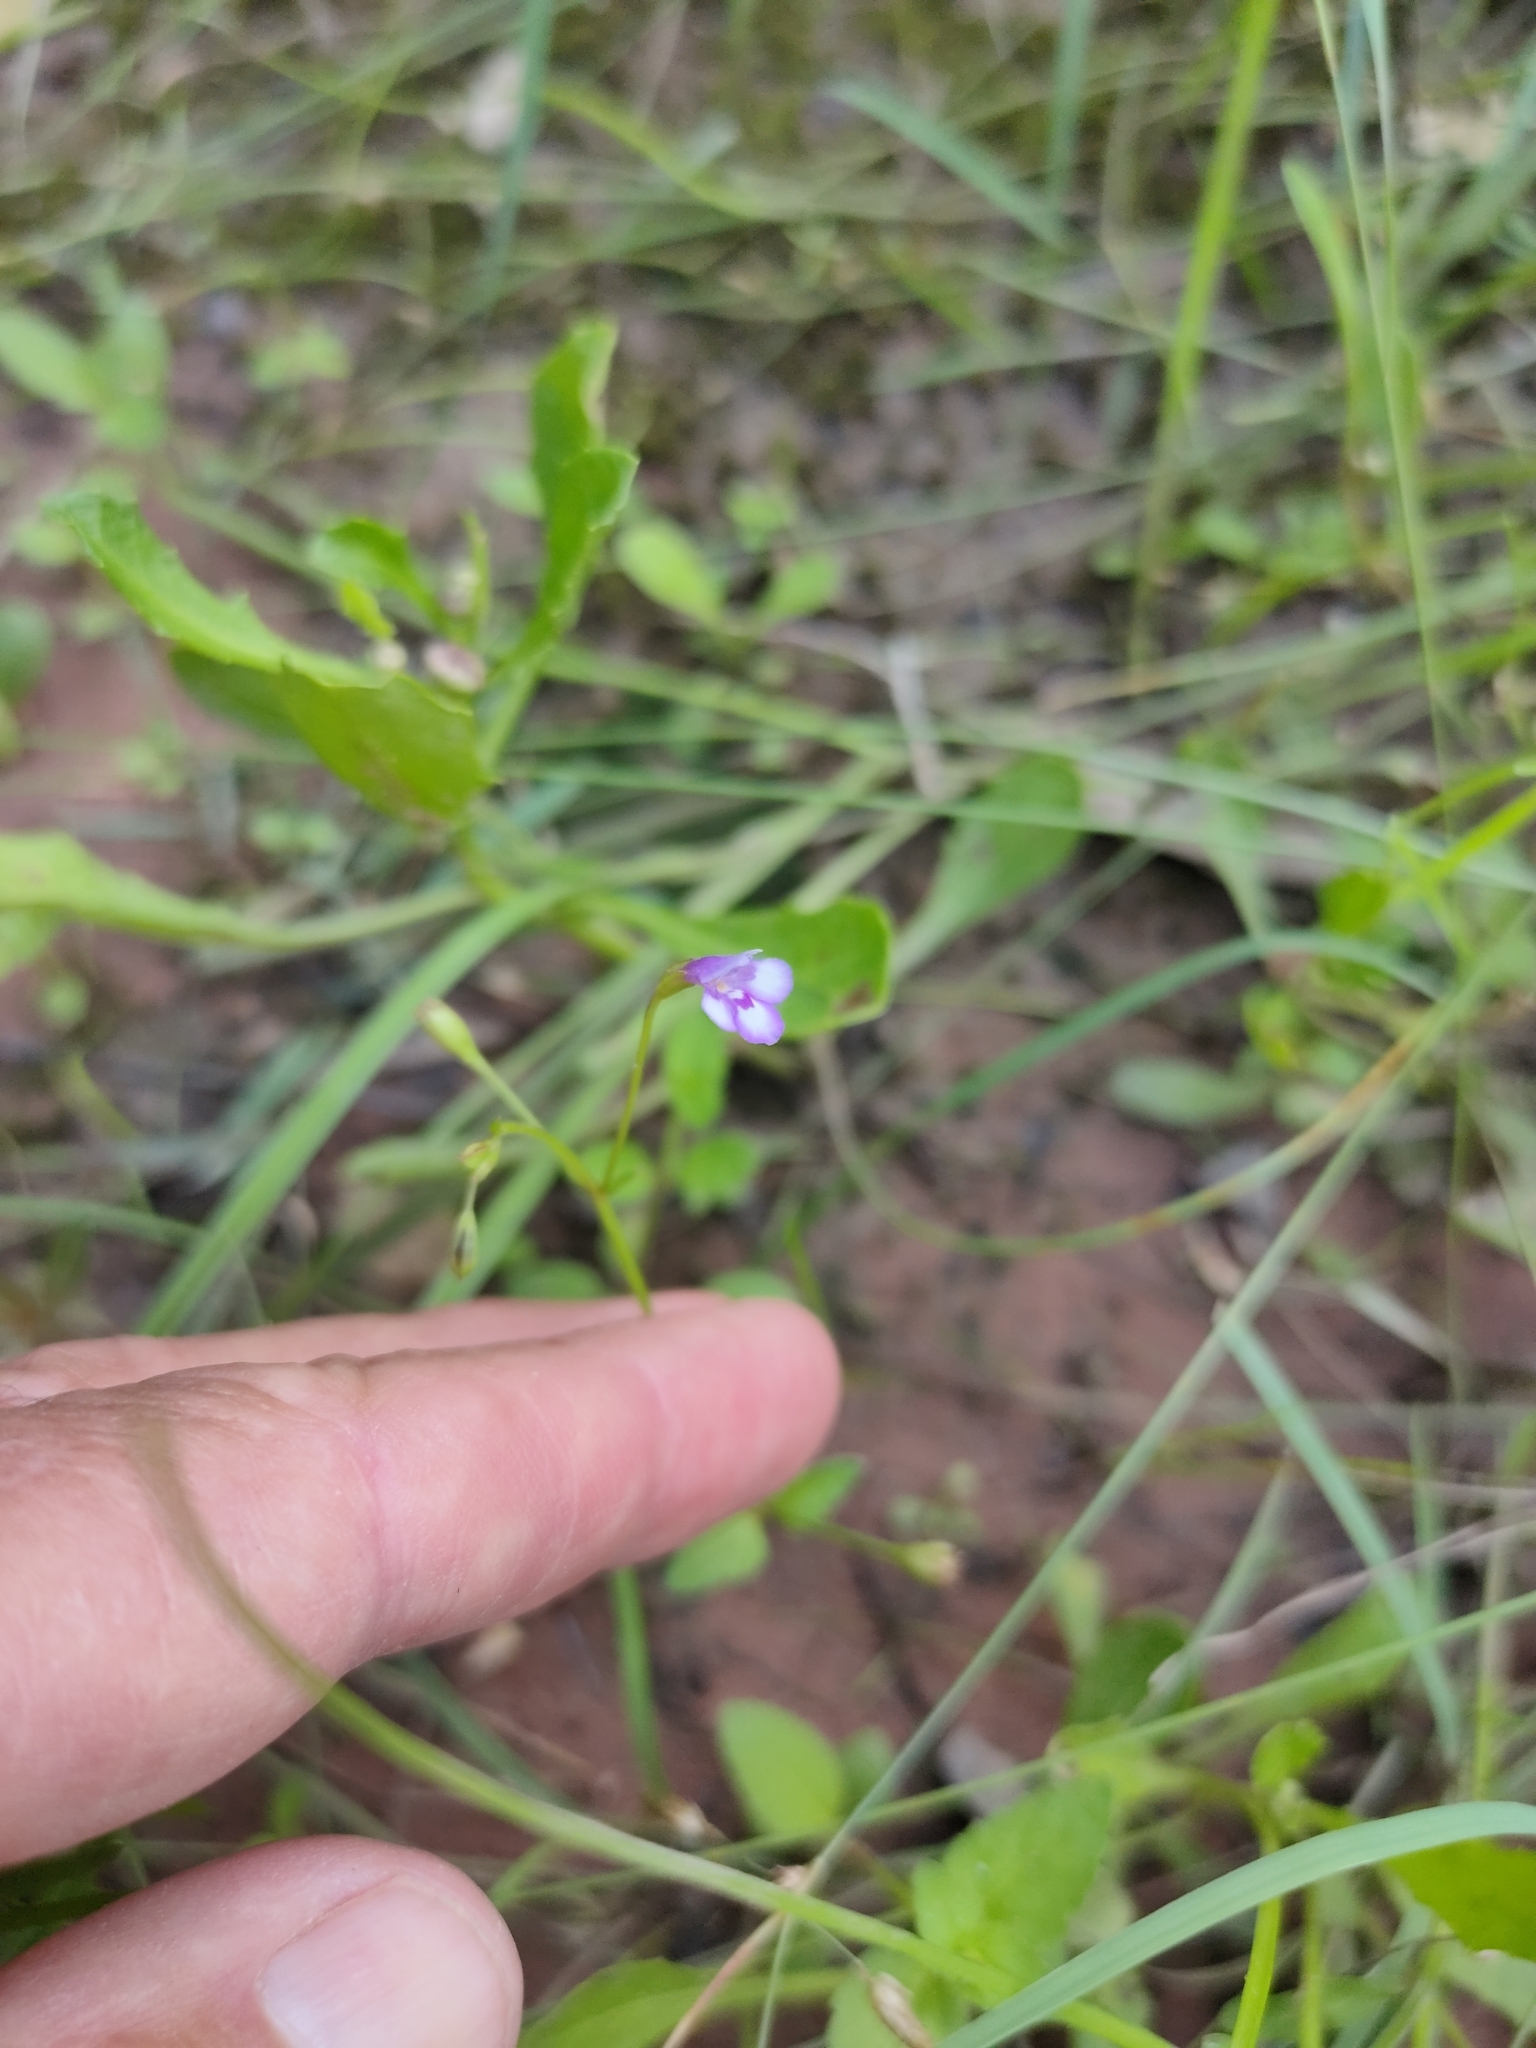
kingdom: Plantae
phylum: Tracheophyta
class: Magnoliopsida
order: Lamiales
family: Linderniaceae
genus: Torenia
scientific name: Torenia crustacea
